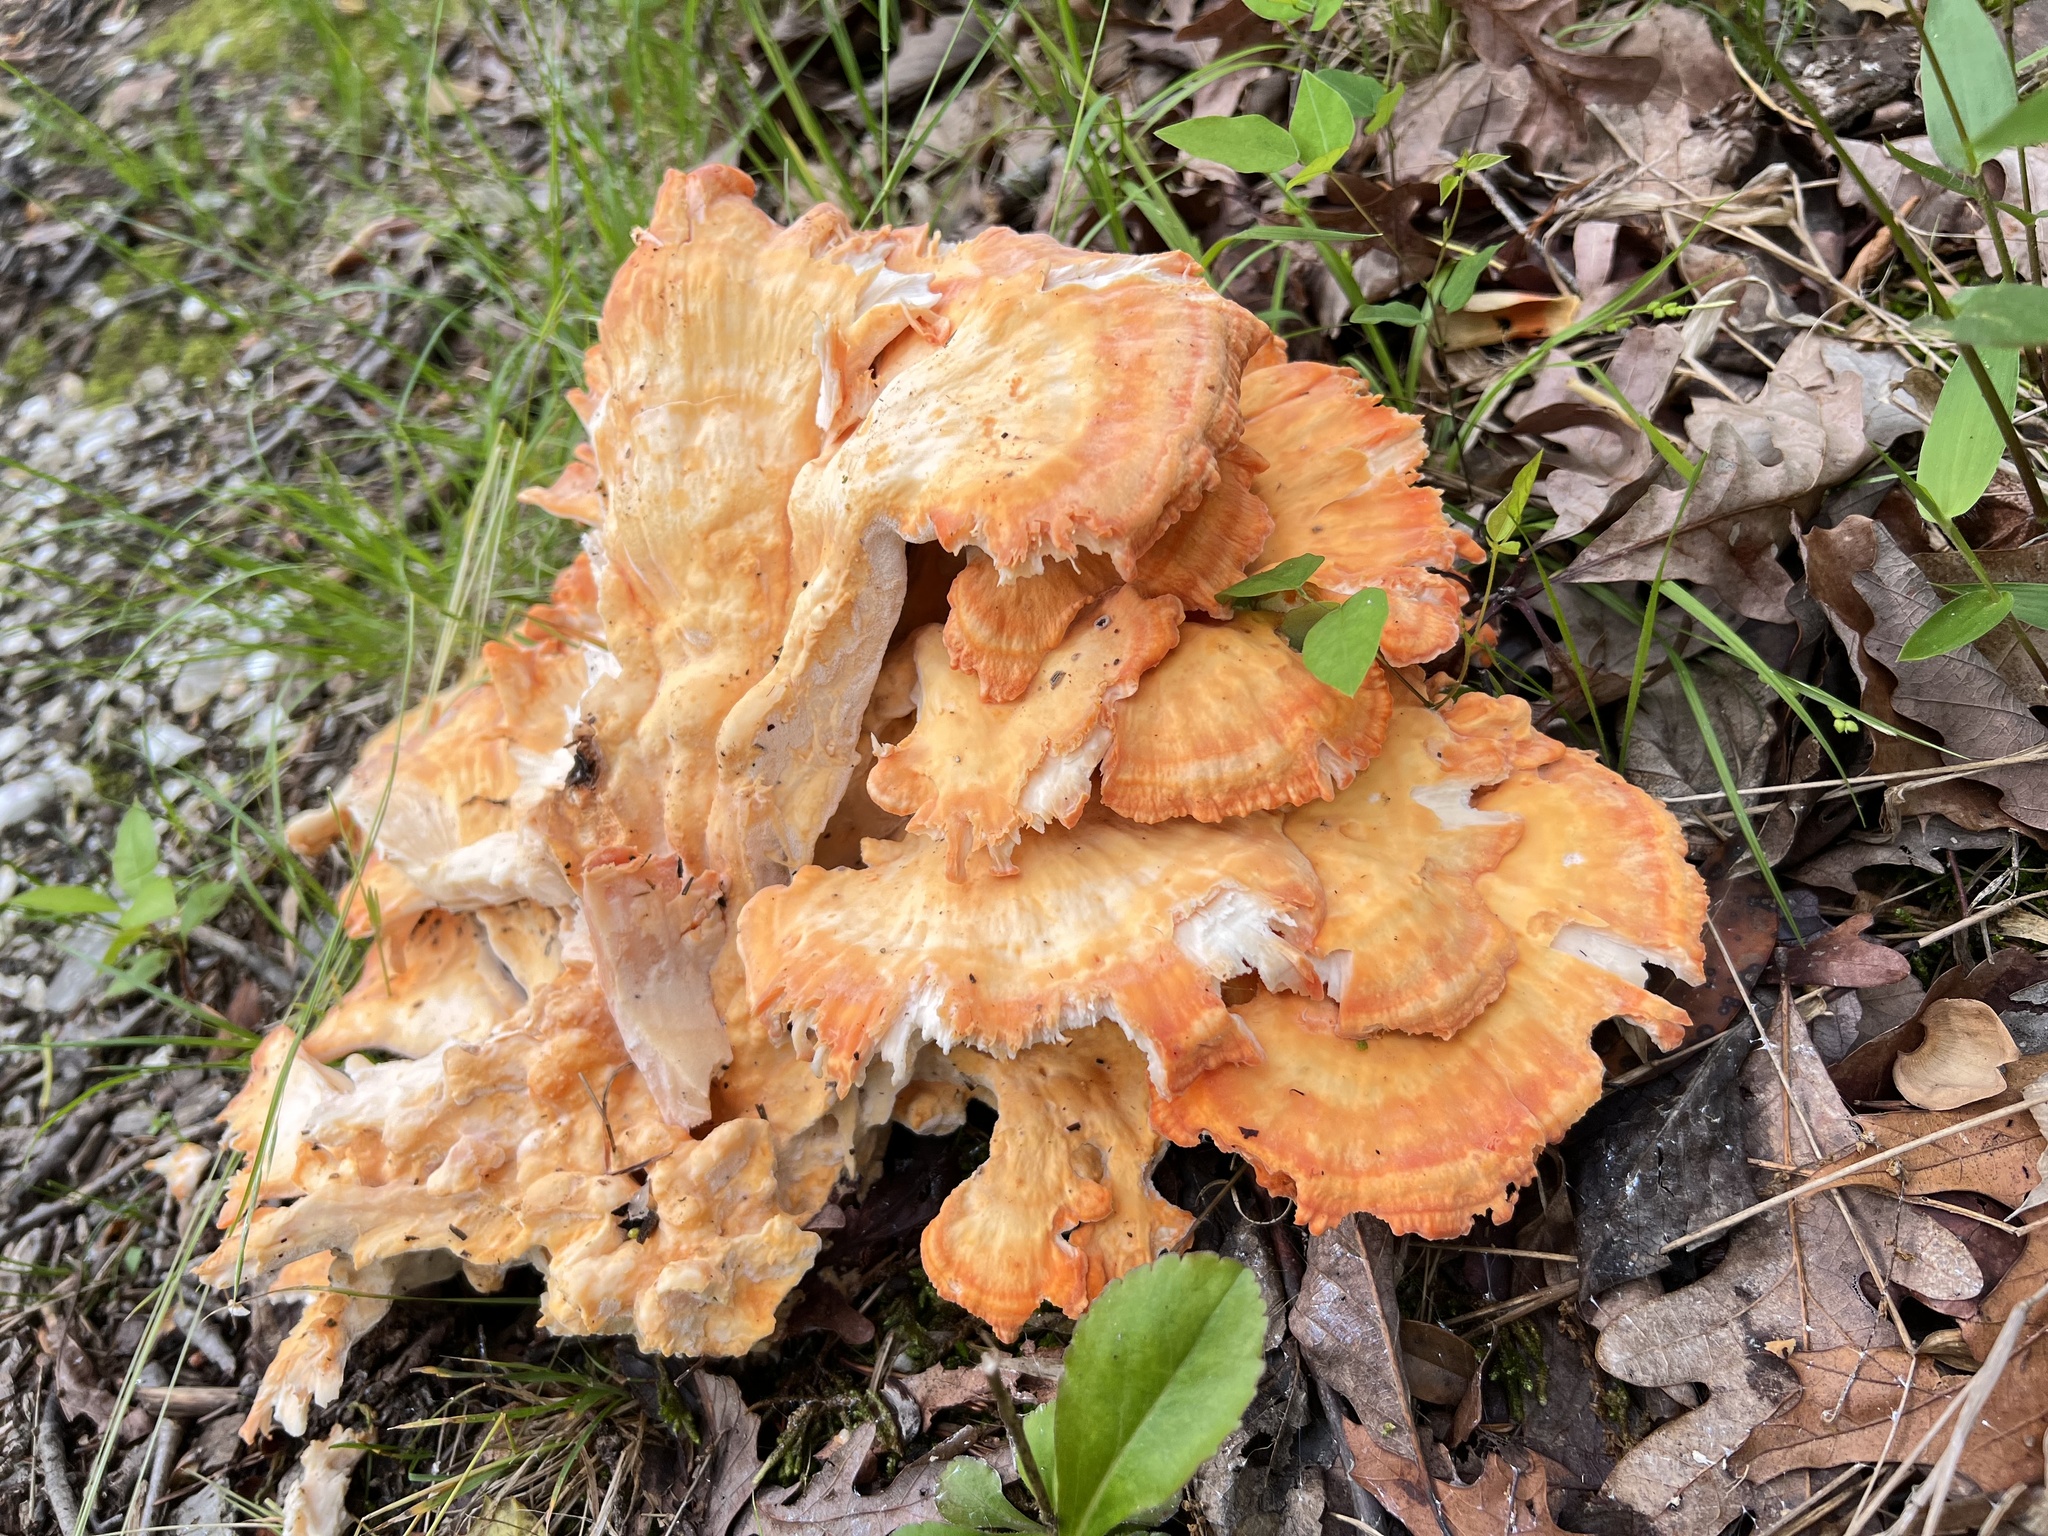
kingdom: Fungi
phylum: Basidiomycota
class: Agaricomycetes
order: Polyporales
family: Laetiporaceae
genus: Laetiporus
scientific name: Laetiporus sulphureus
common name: Chicken of the woods
